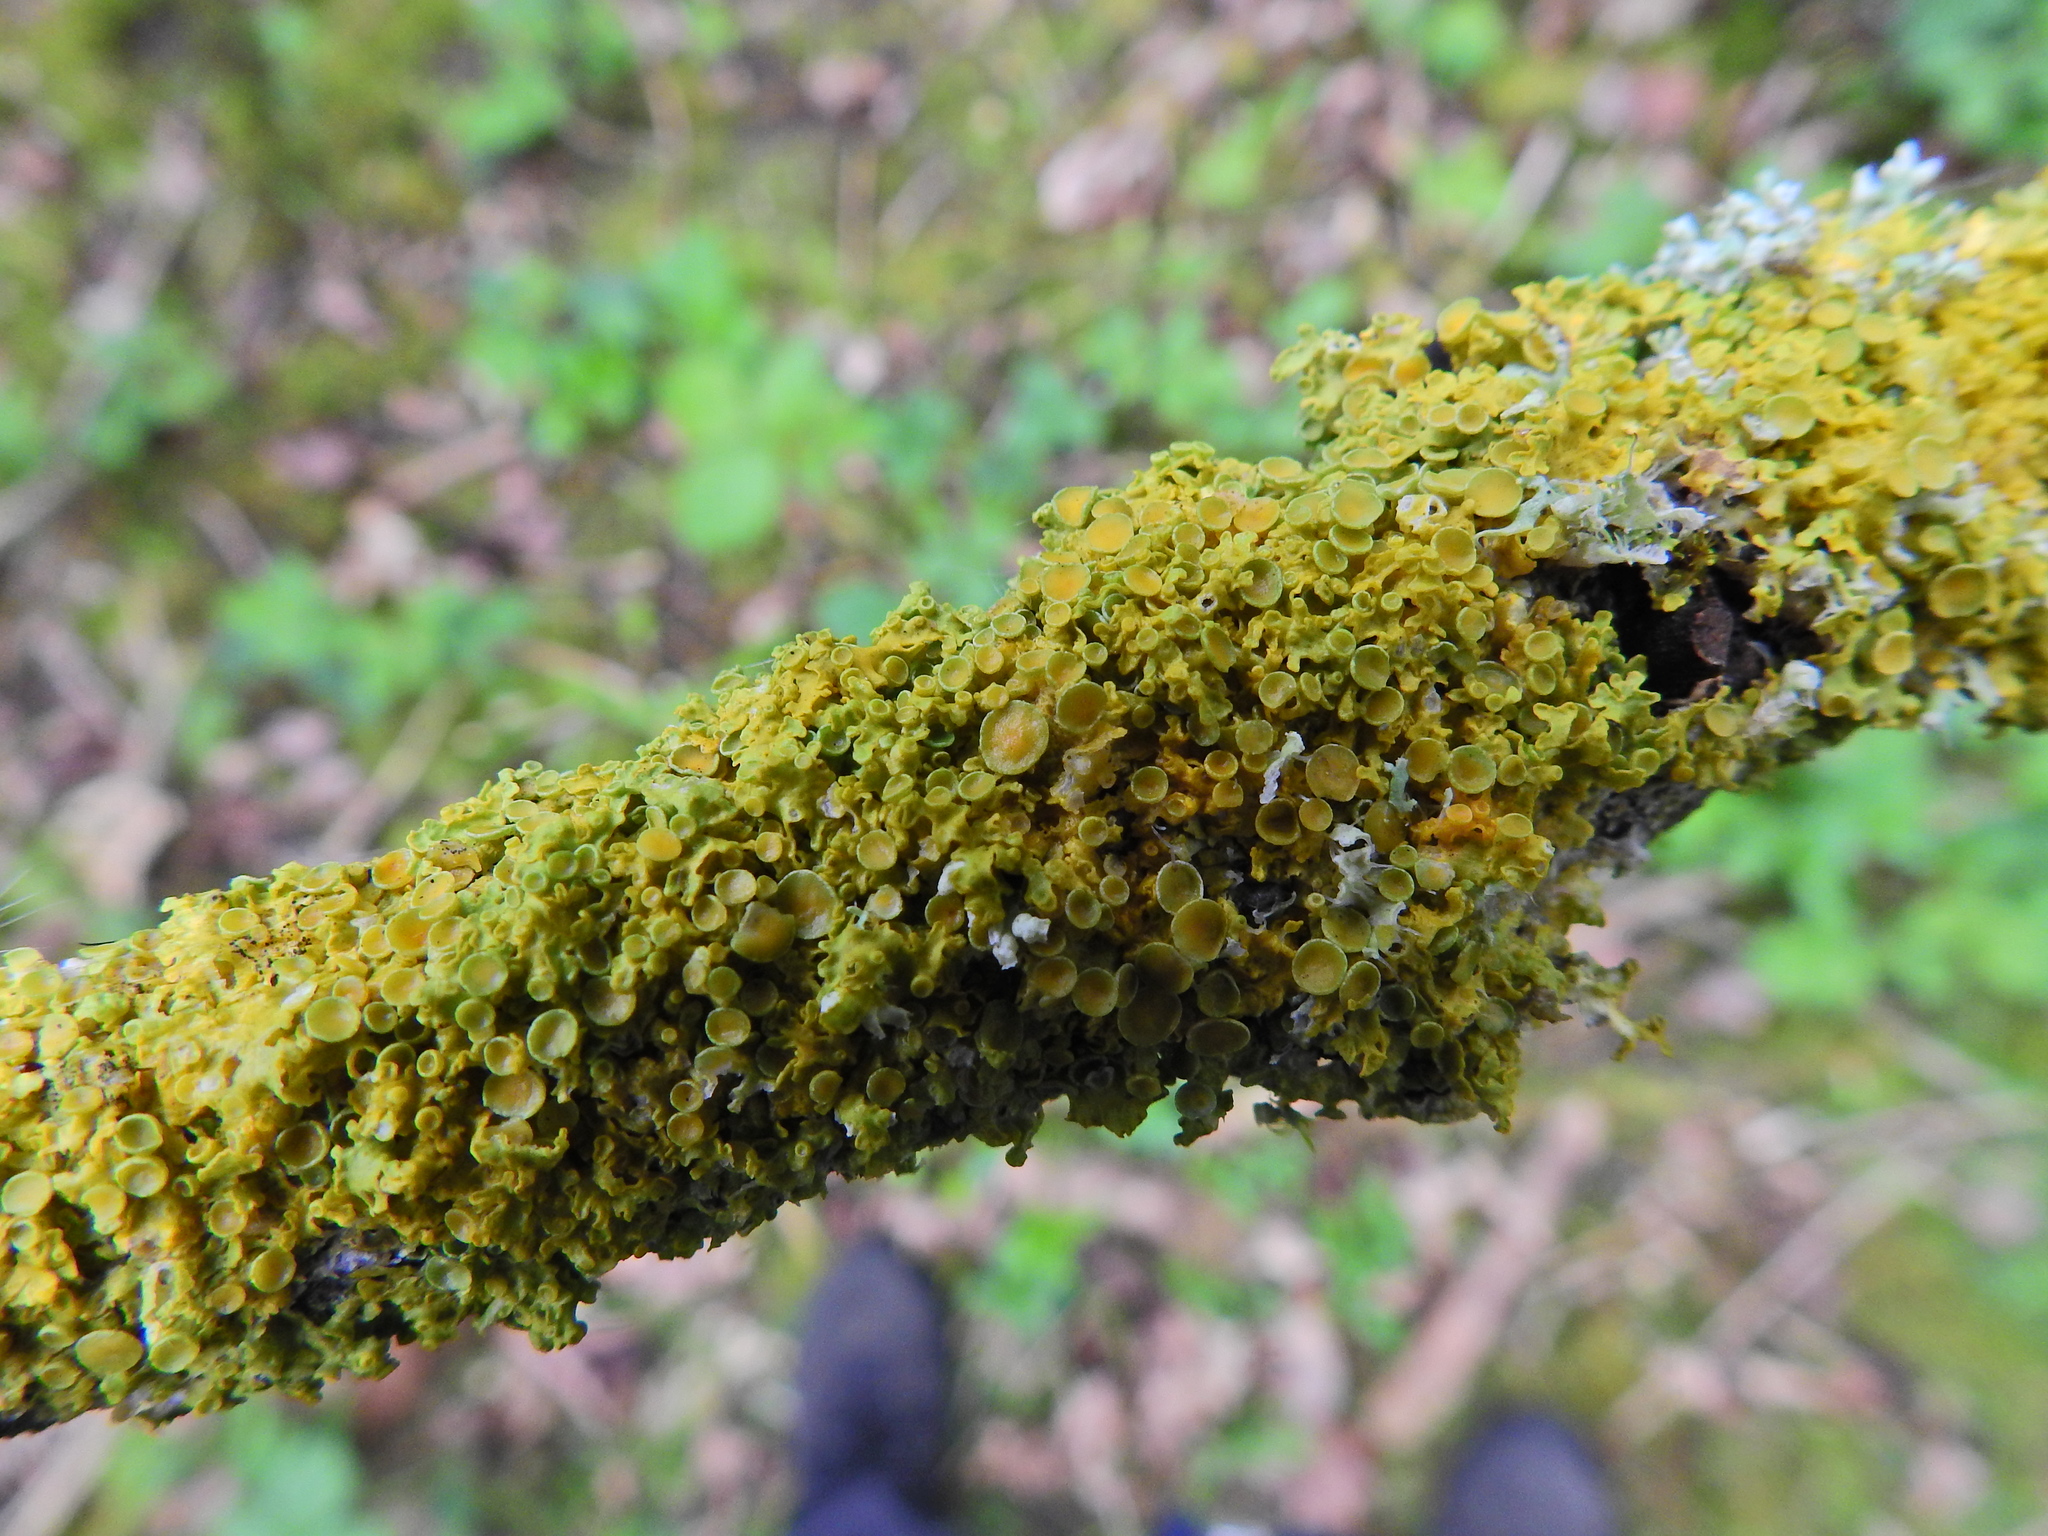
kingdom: Fungi
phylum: Ascomycota
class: Lecanoromycetes
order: Teloschistales
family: Teloschistaceae
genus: Xanthoria
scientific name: Xanthoria parietina
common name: Common orange lichen
